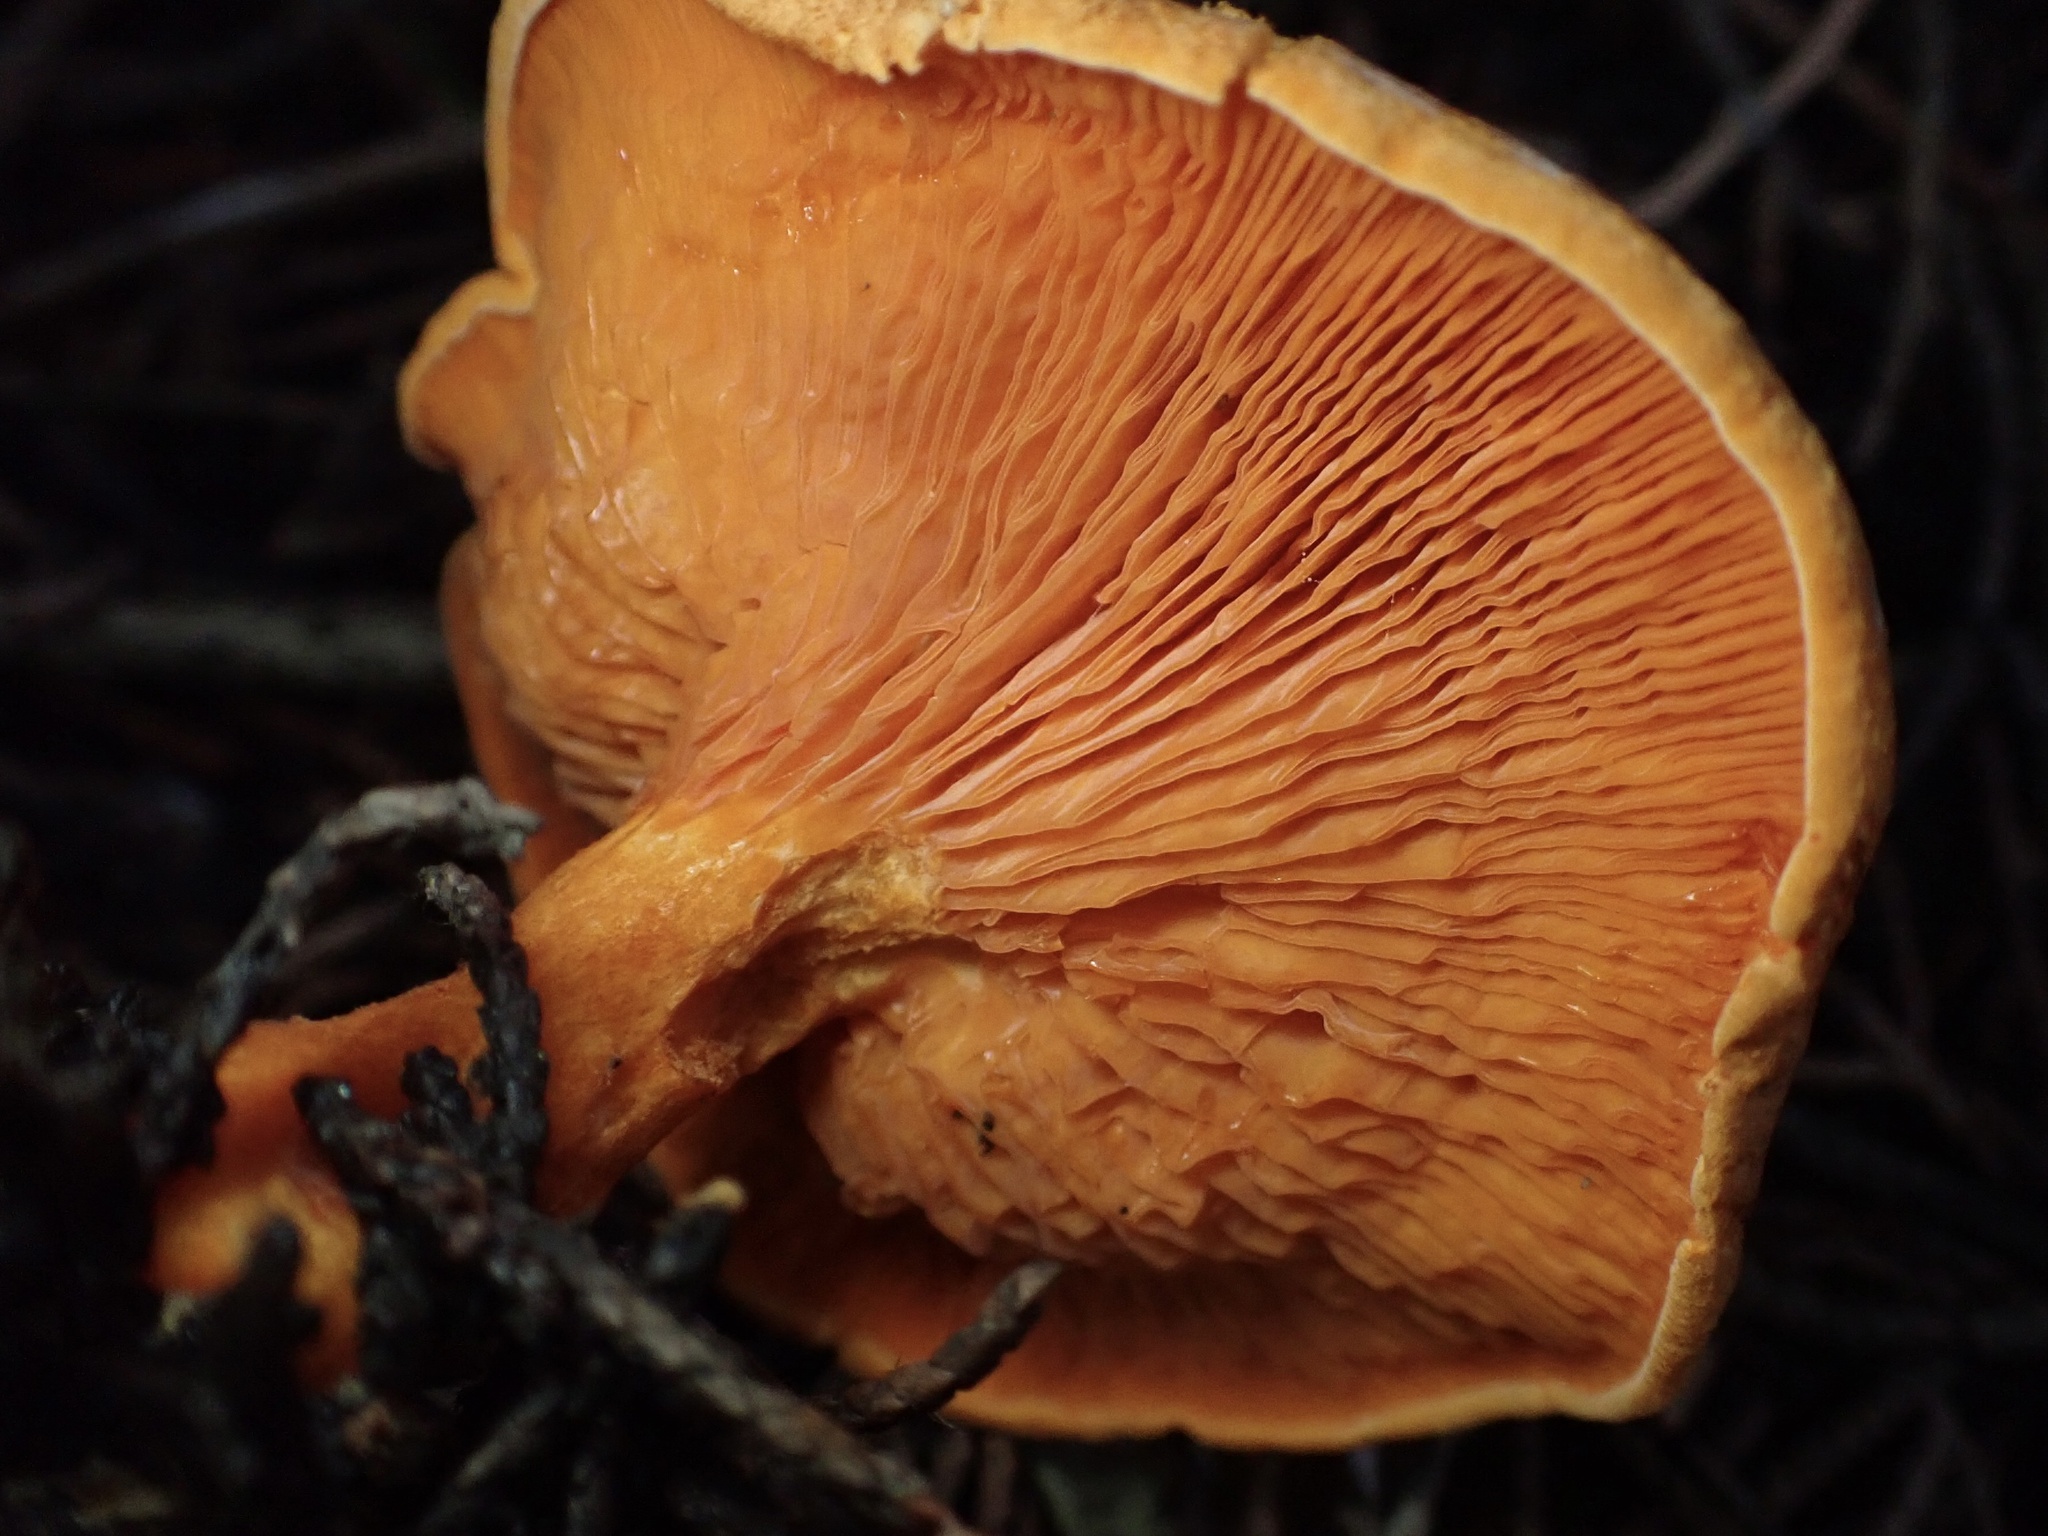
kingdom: Fungi
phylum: Basidiomycota
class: Agaricomycetes
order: Boletales
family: Hygrophoropsidaceae
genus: Hygrophoropsis
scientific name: Hygrophoropsis aurantiaca
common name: False chanterelle
